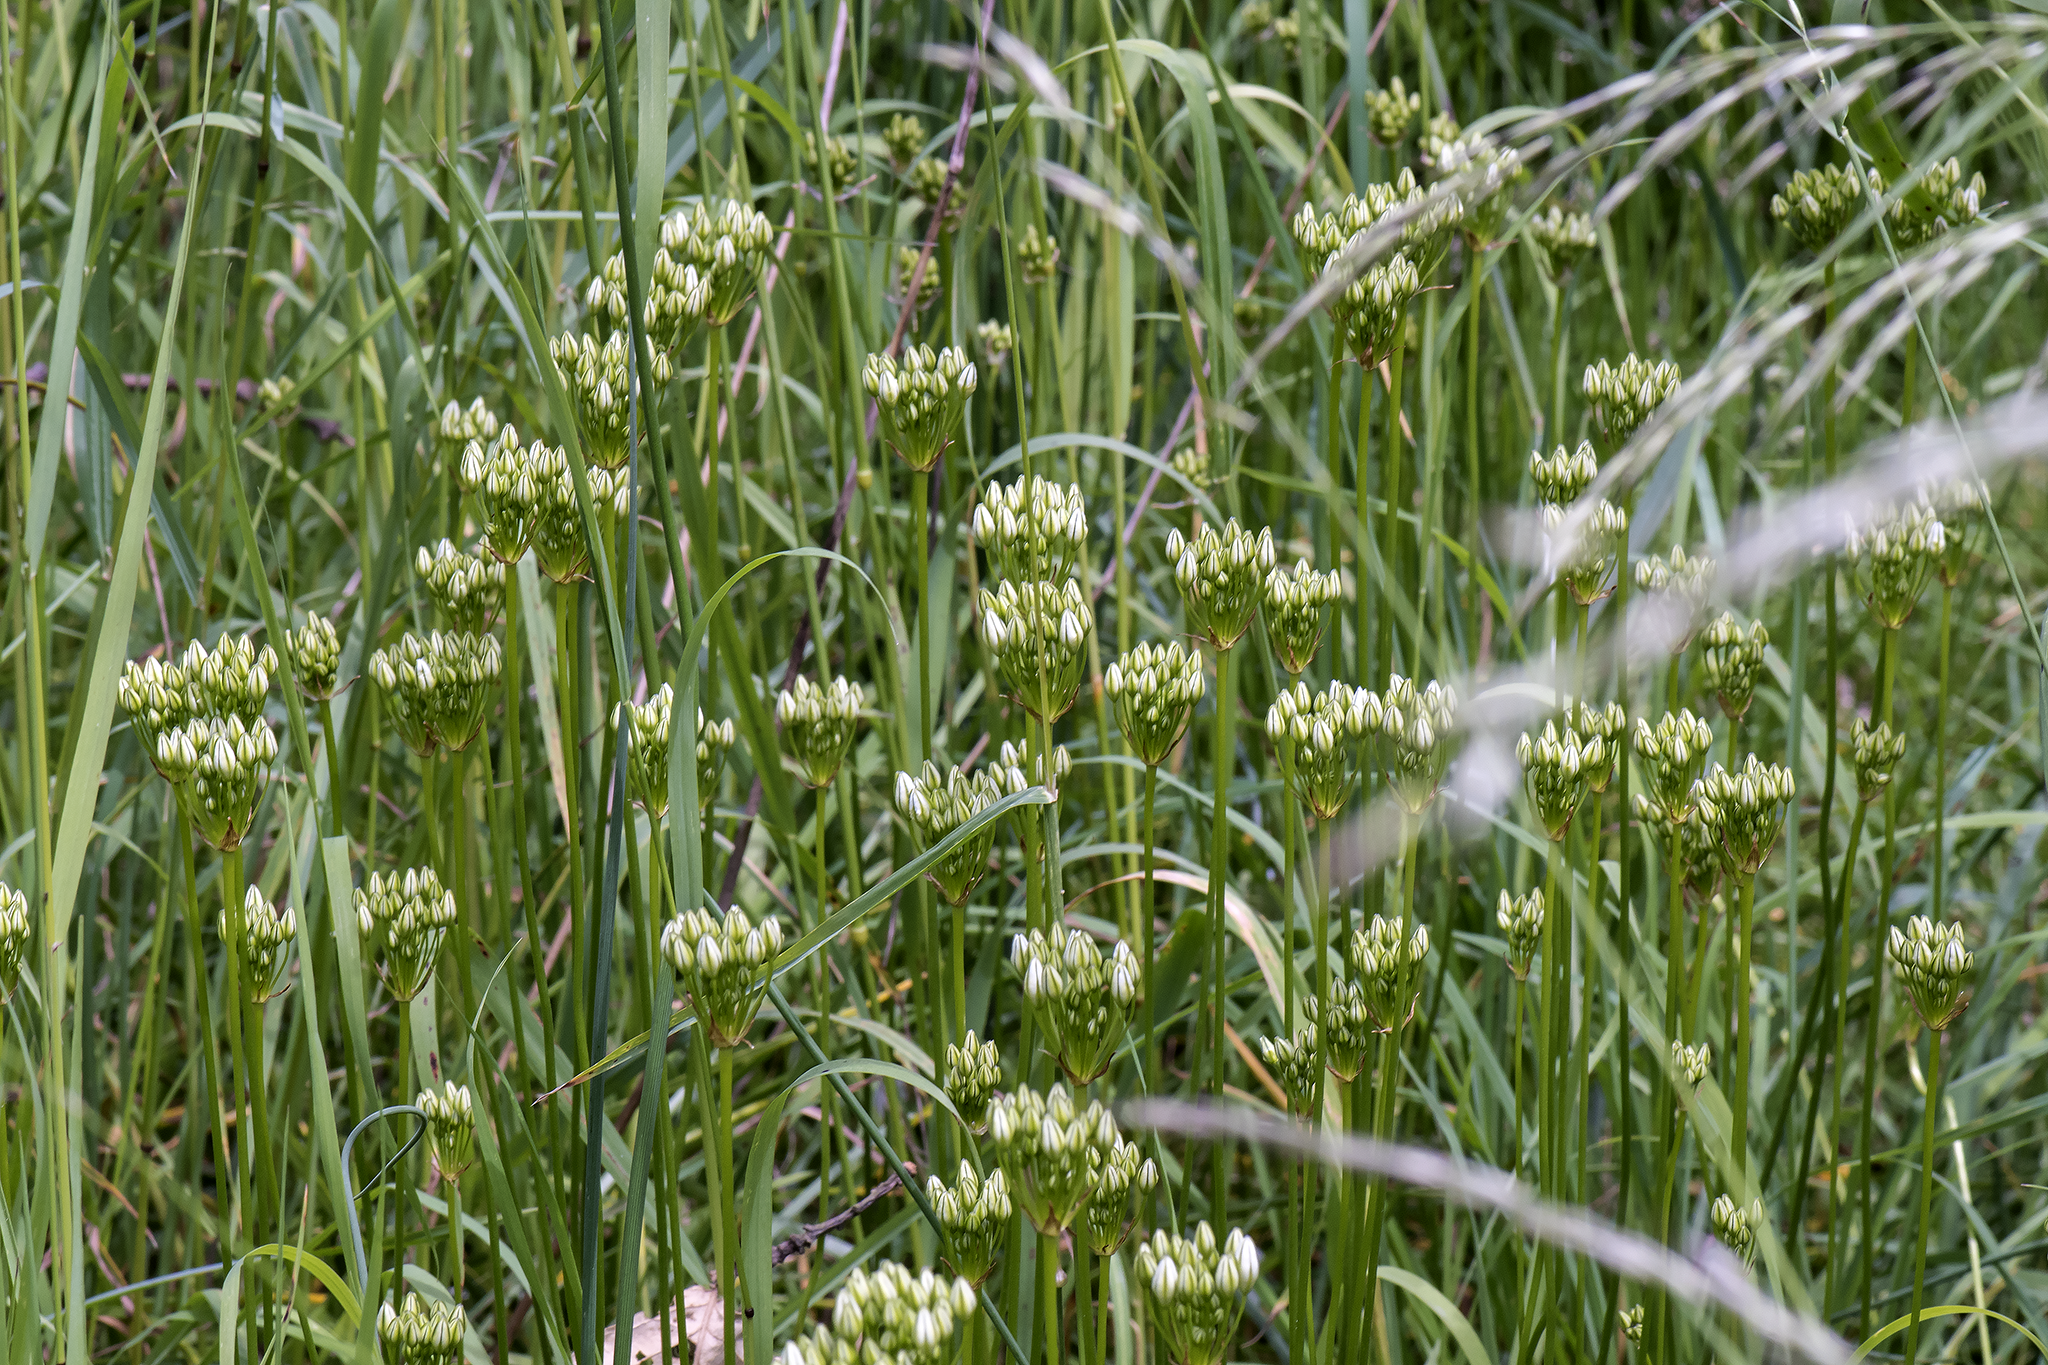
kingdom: Plantae
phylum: Tracheophyta
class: Liliopsida
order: Asparagales
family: Asparagaceae
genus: Triteleia
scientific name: Triteleia hyacinthina
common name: White brodiaea
